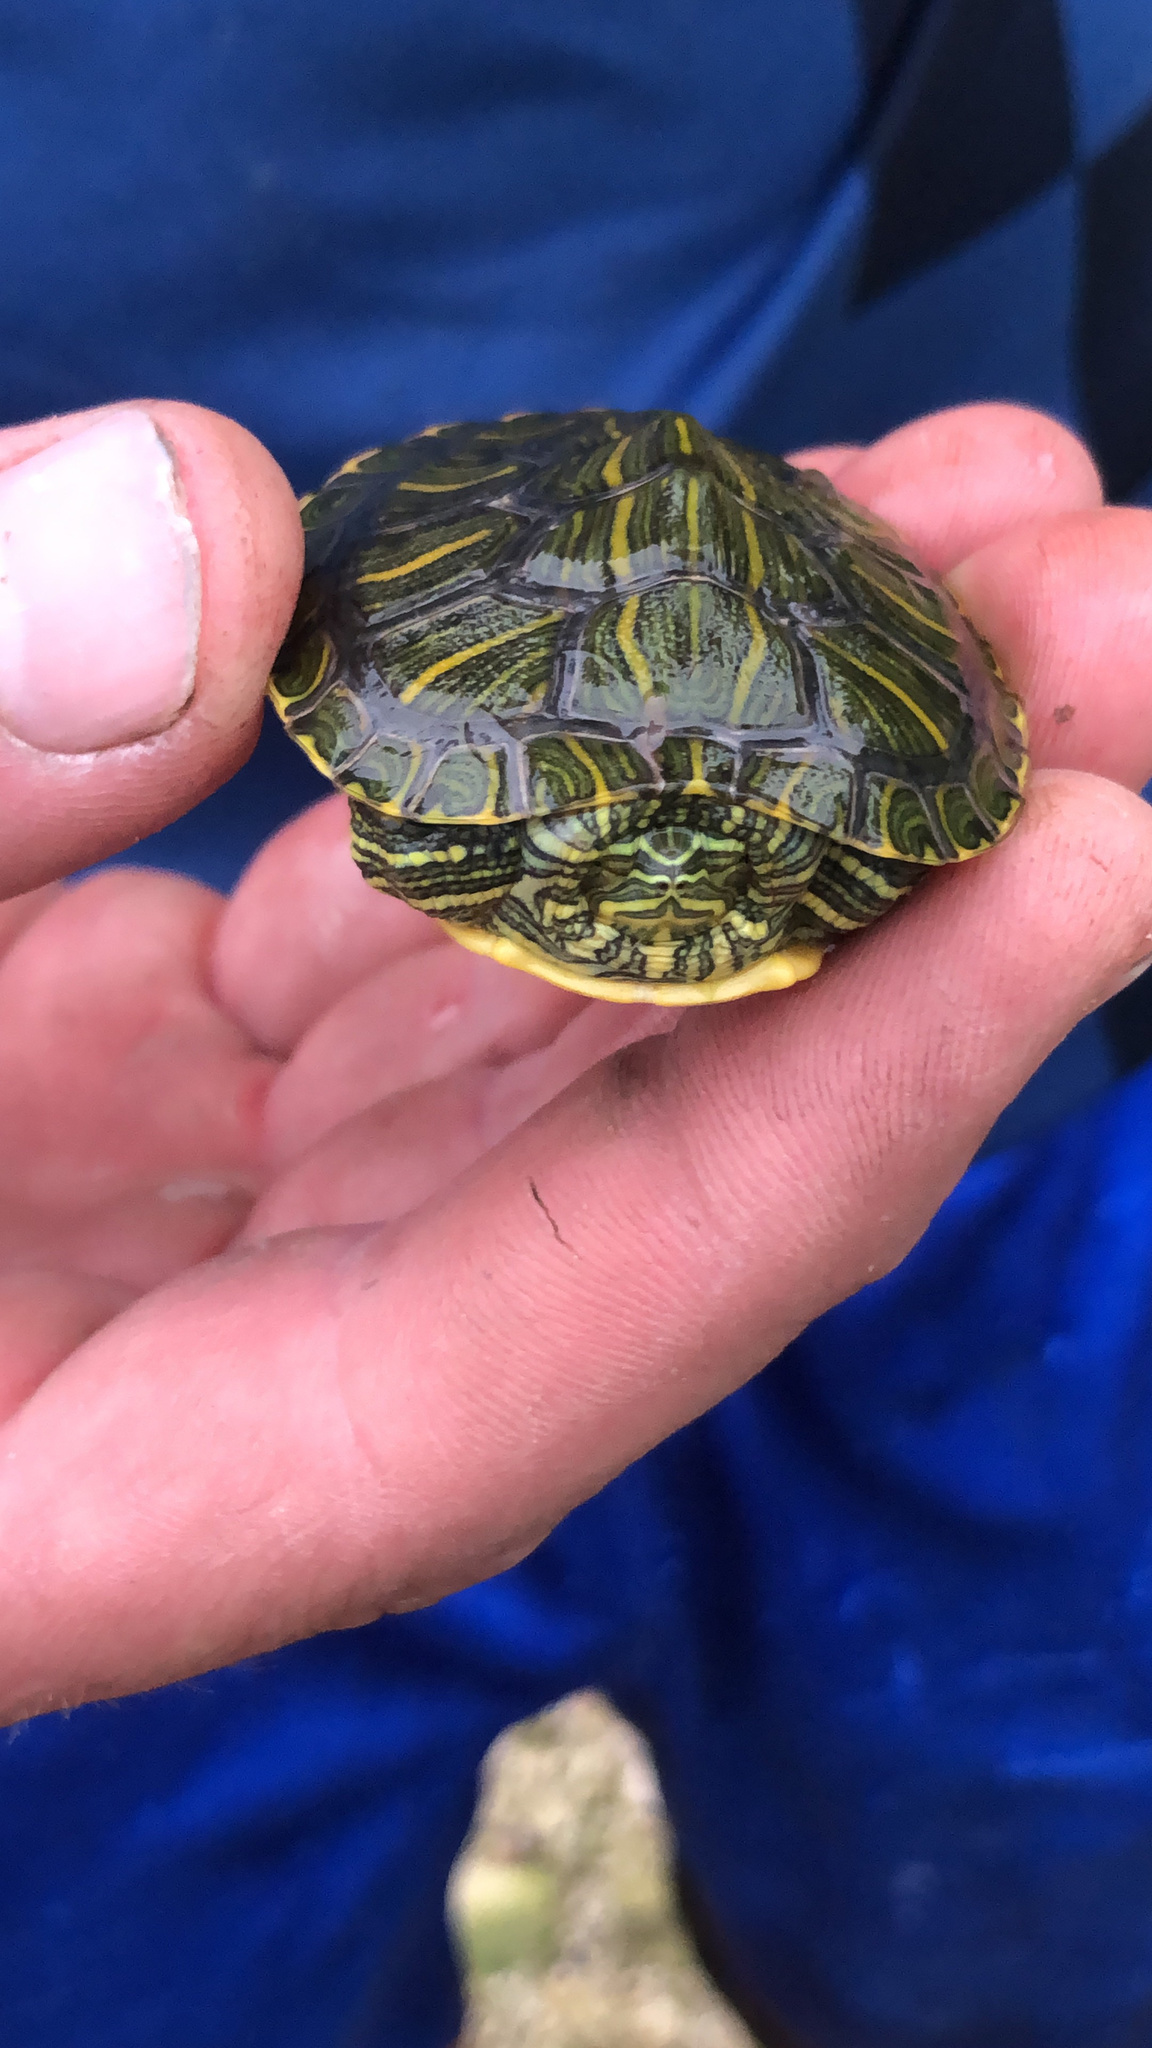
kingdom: Animalia
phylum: Chordata
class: Testudines
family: Emydidae
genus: Trachemys
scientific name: Trachemys scripta
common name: Slider
